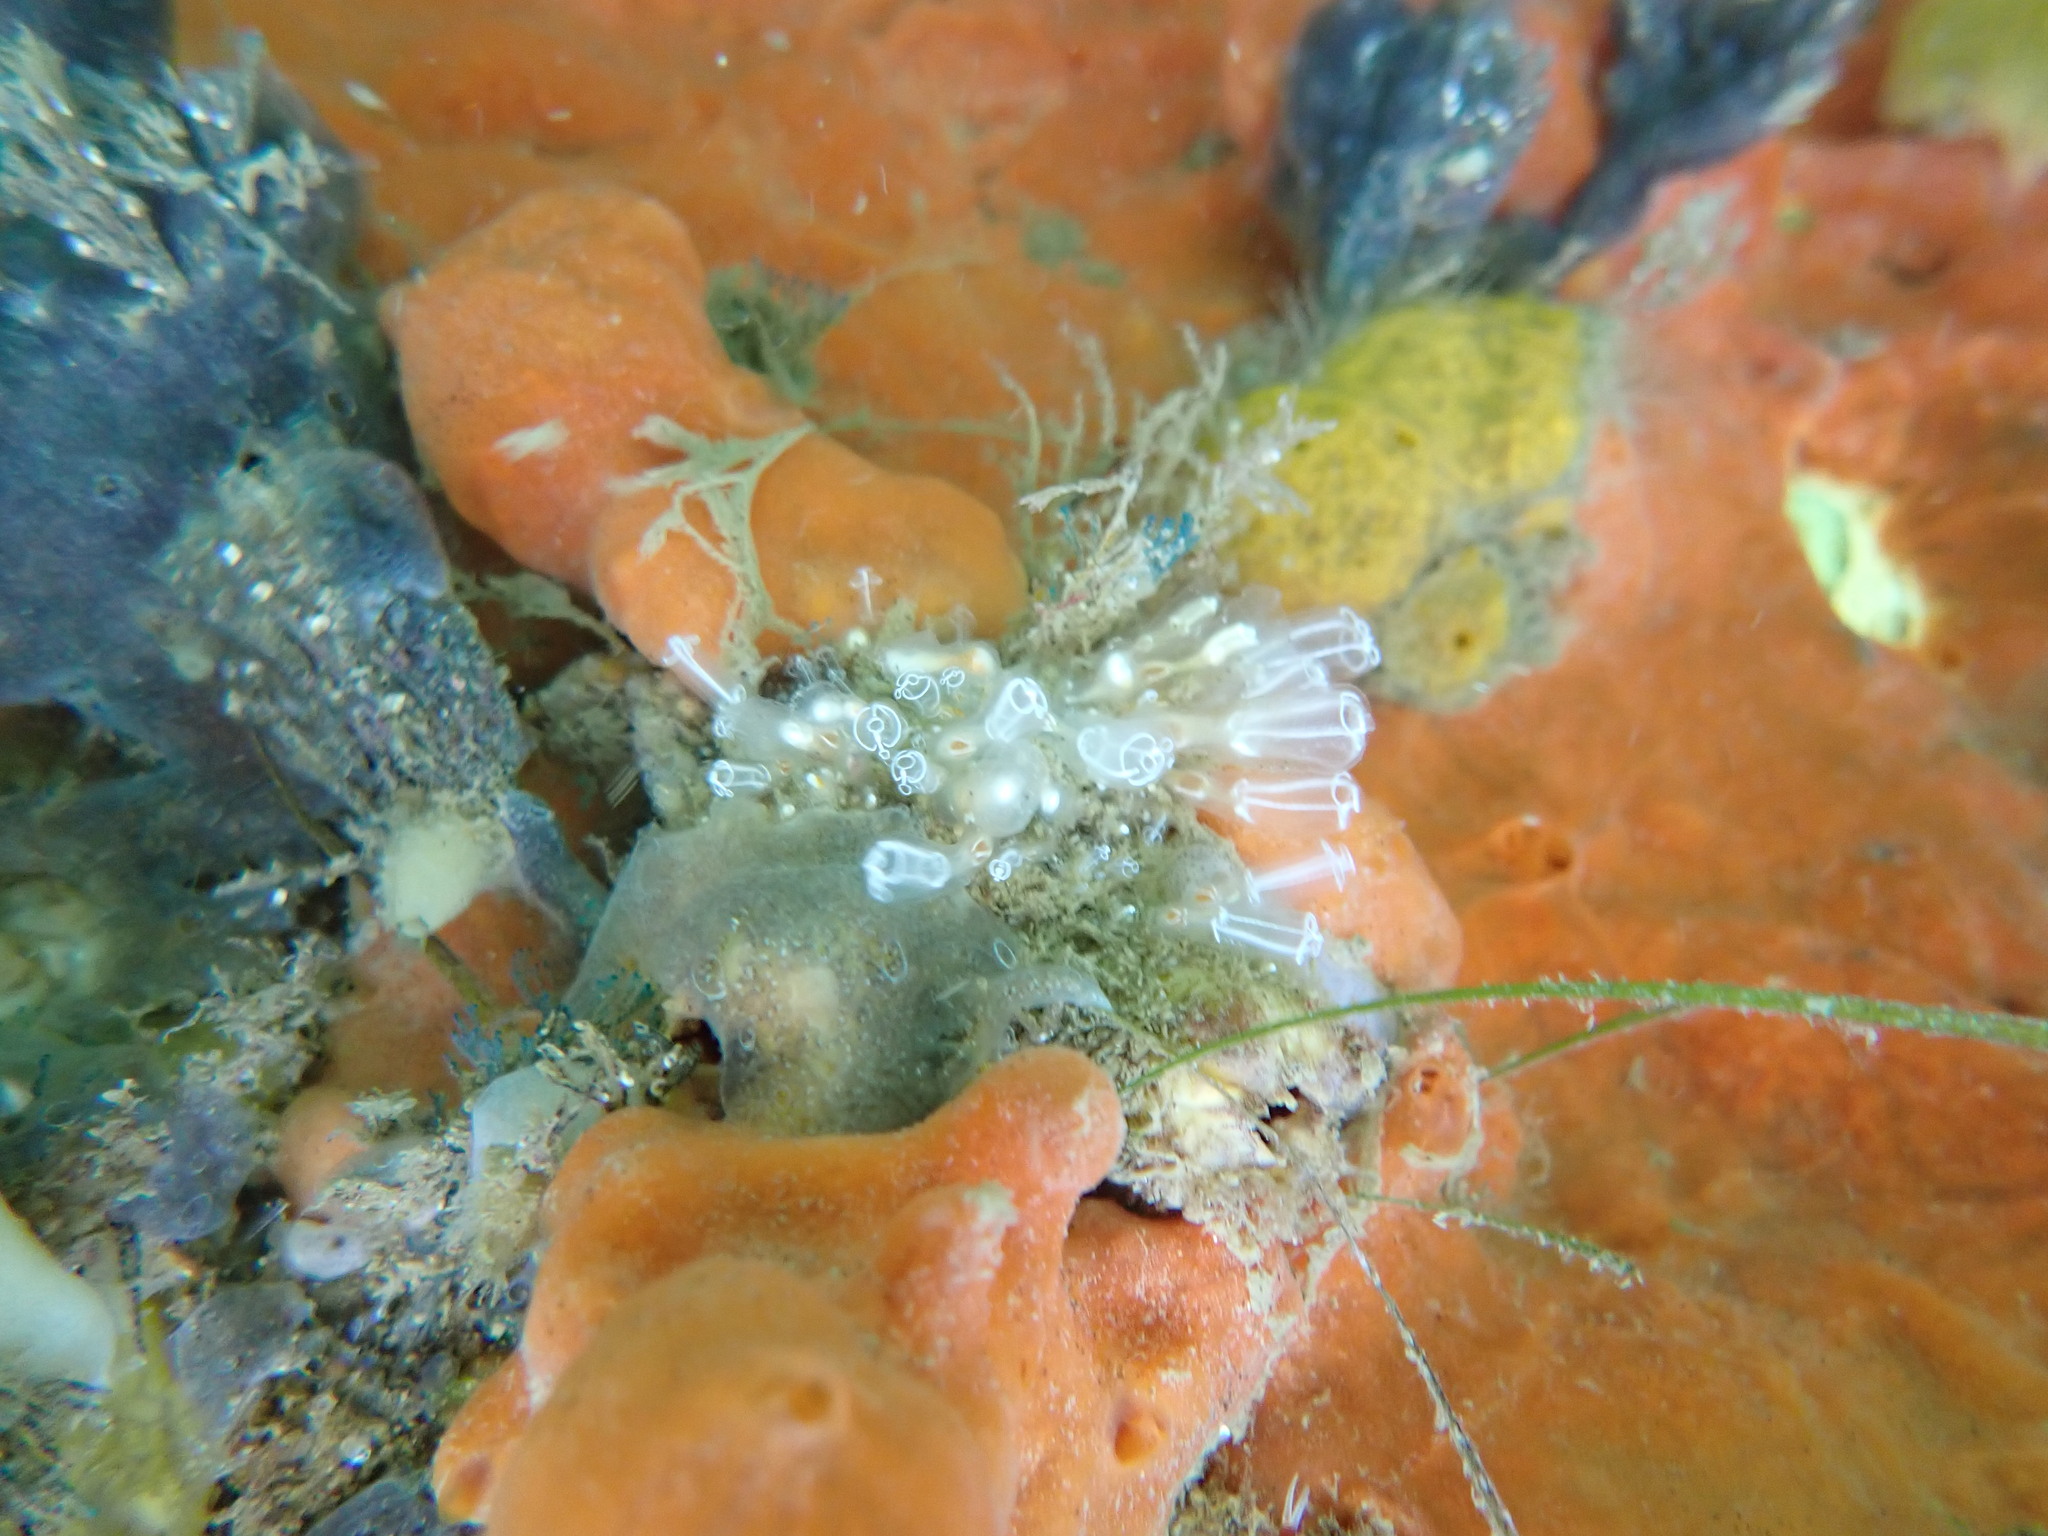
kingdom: Animalia
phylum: Chordata
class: Ascidiacea
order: Aplousobranchia
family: Clavelinidae
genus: Clavelina
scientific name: Clavelina lepadiformis
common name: Light bulb tunicate
